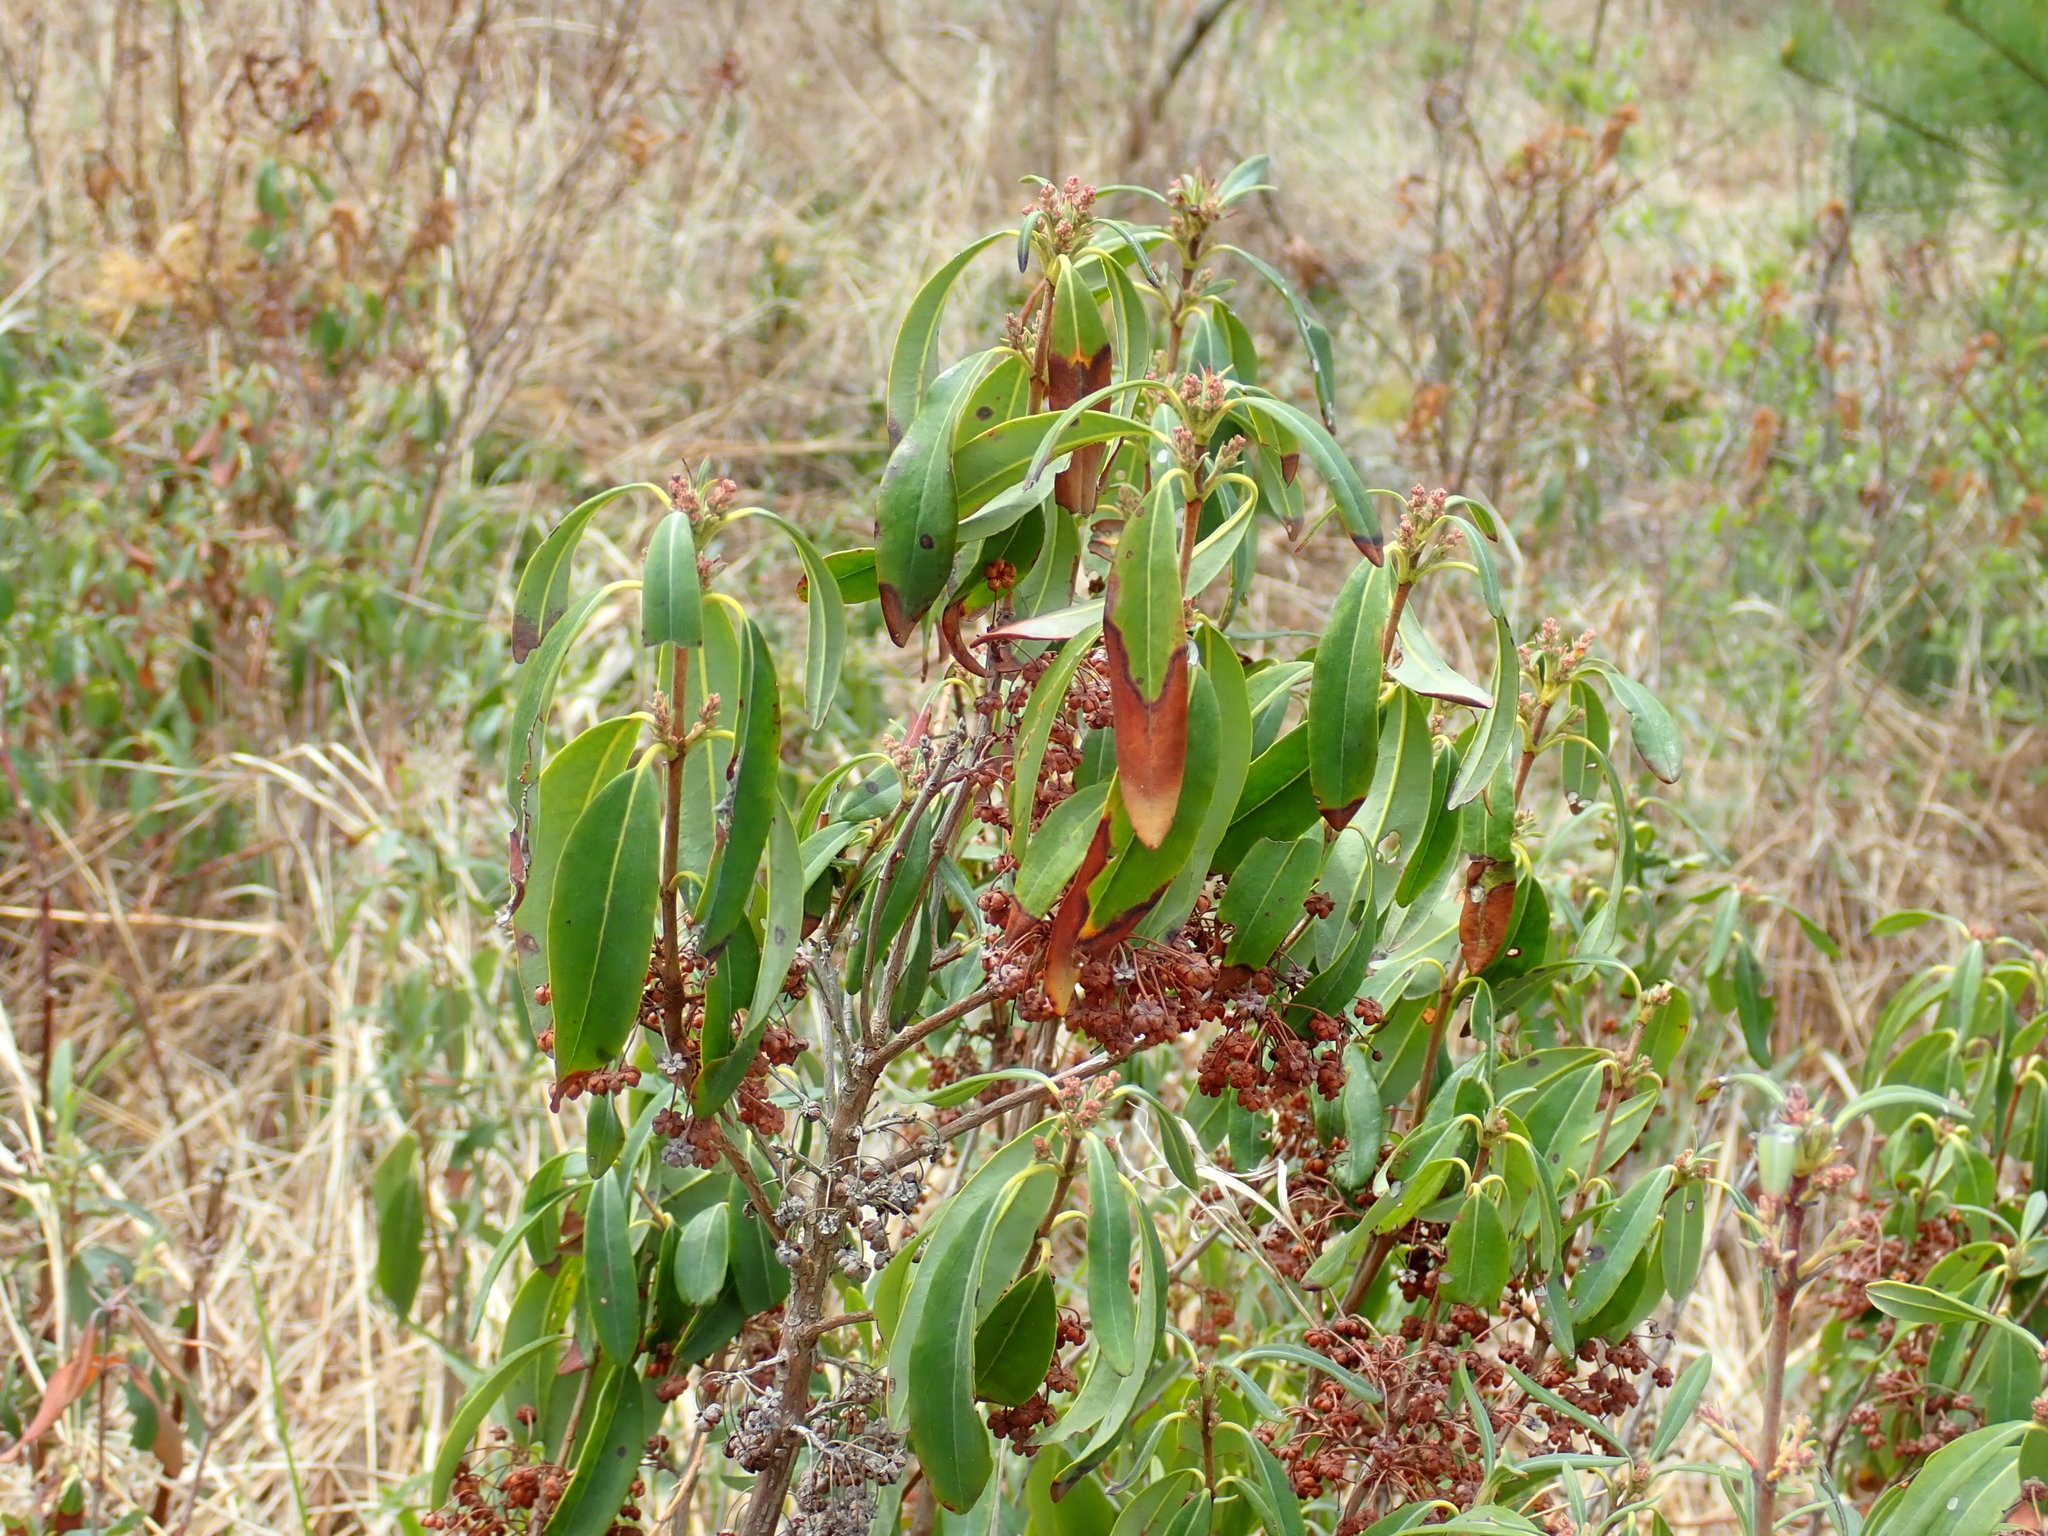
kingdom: Plantae
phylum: Tracheophyta
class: Magnoliopsida
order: Ericales
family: Ericaceae
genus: Kalmia
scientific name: Kalmia angustifolia
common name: Sheep-laurel
